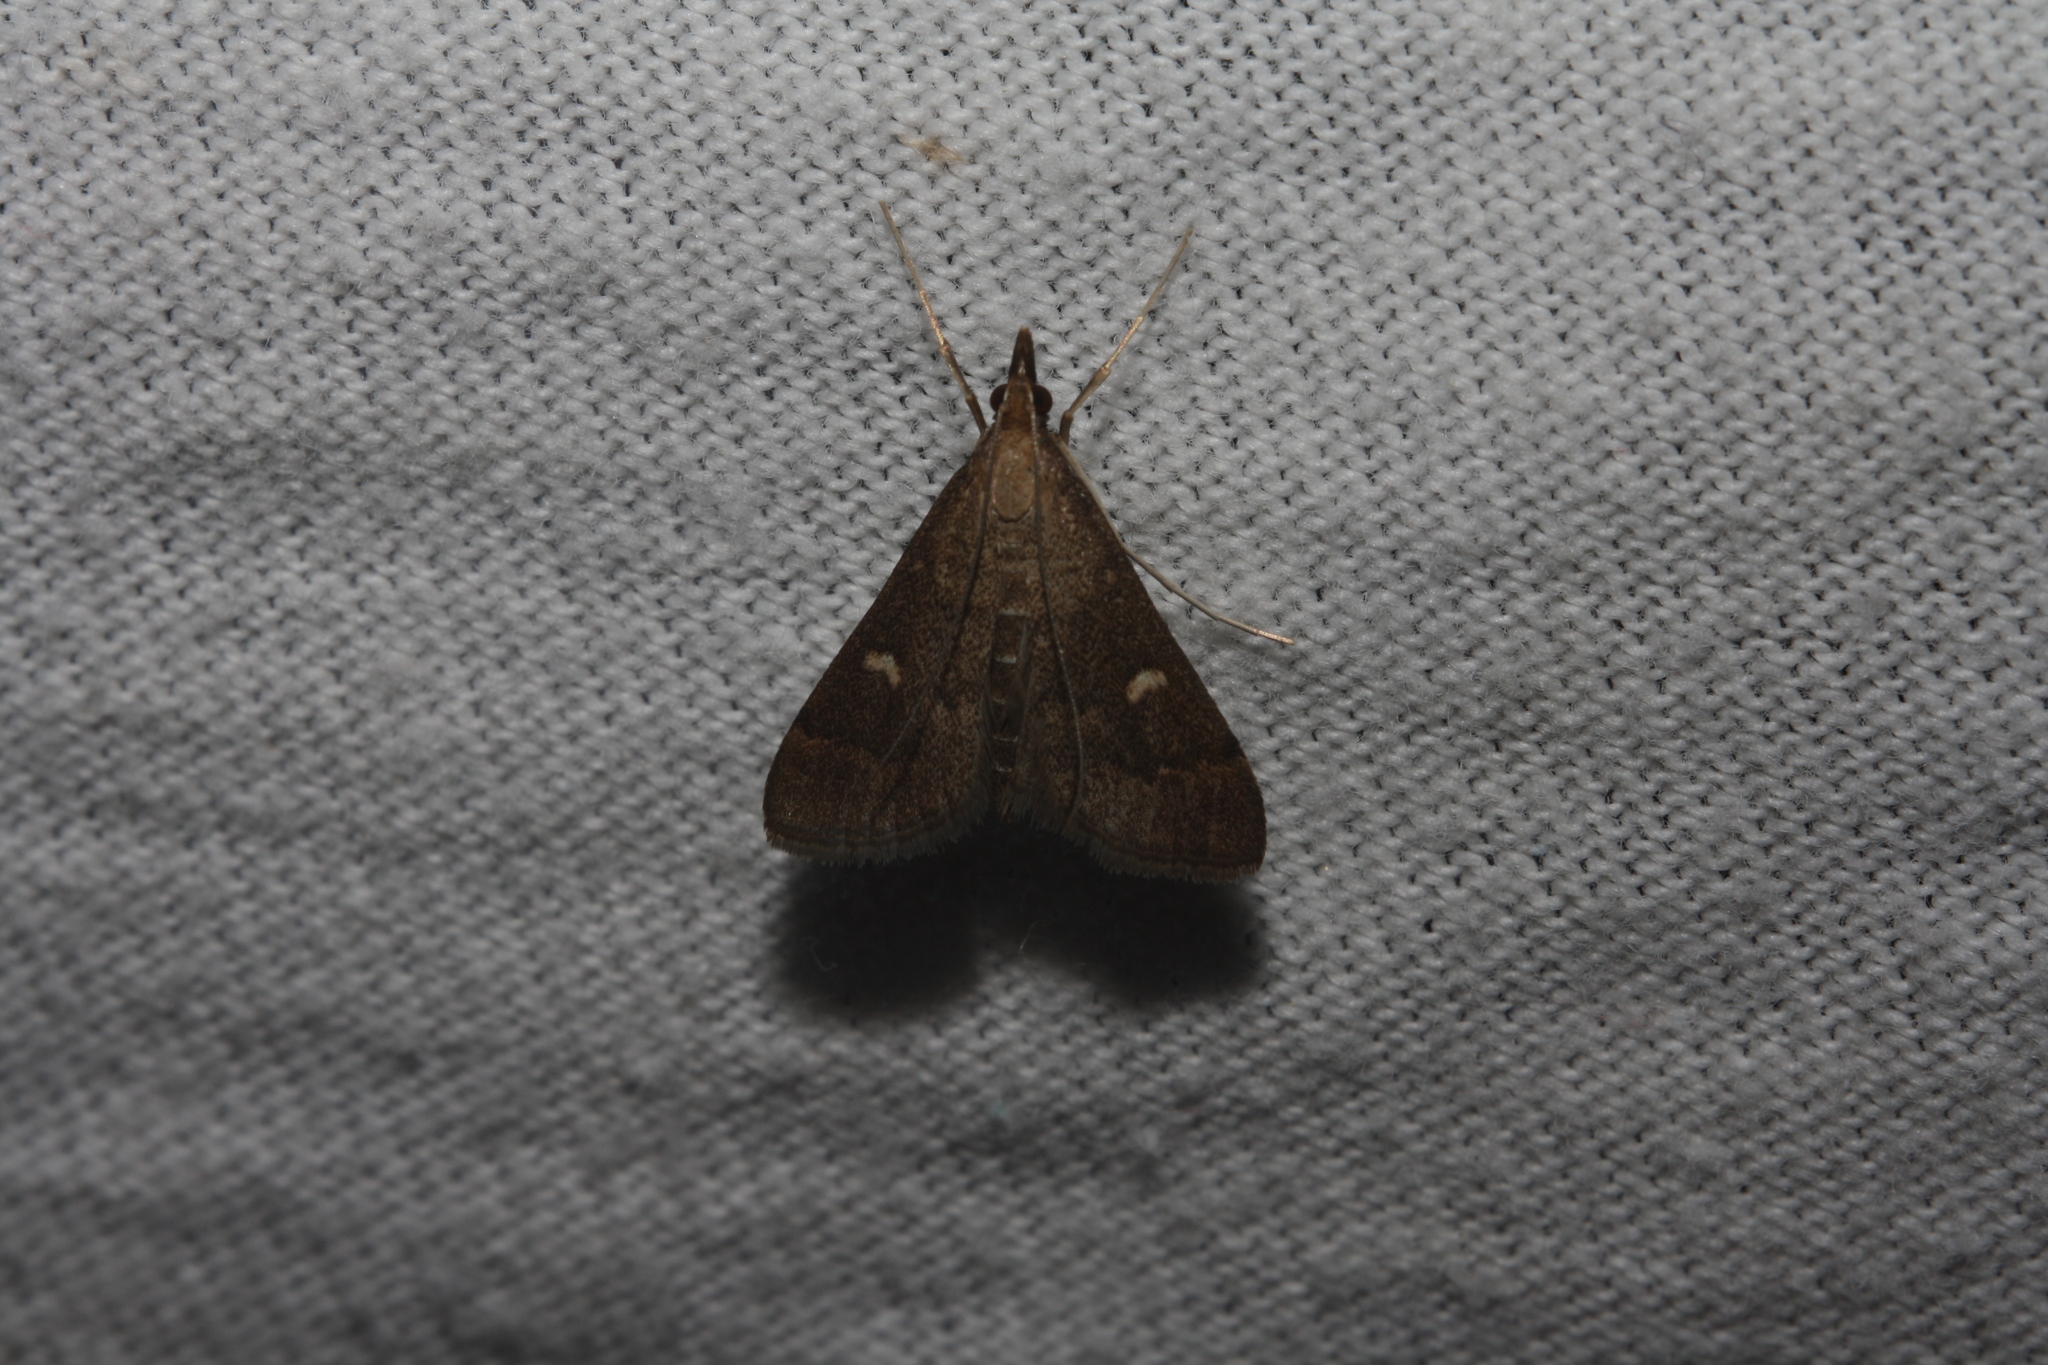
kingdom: Animalia
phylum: Arthropoda
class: Insecta
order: Lepidoptera
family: Crambidae
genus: Stenia
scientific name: Stenia Dolicharthria punctalis
